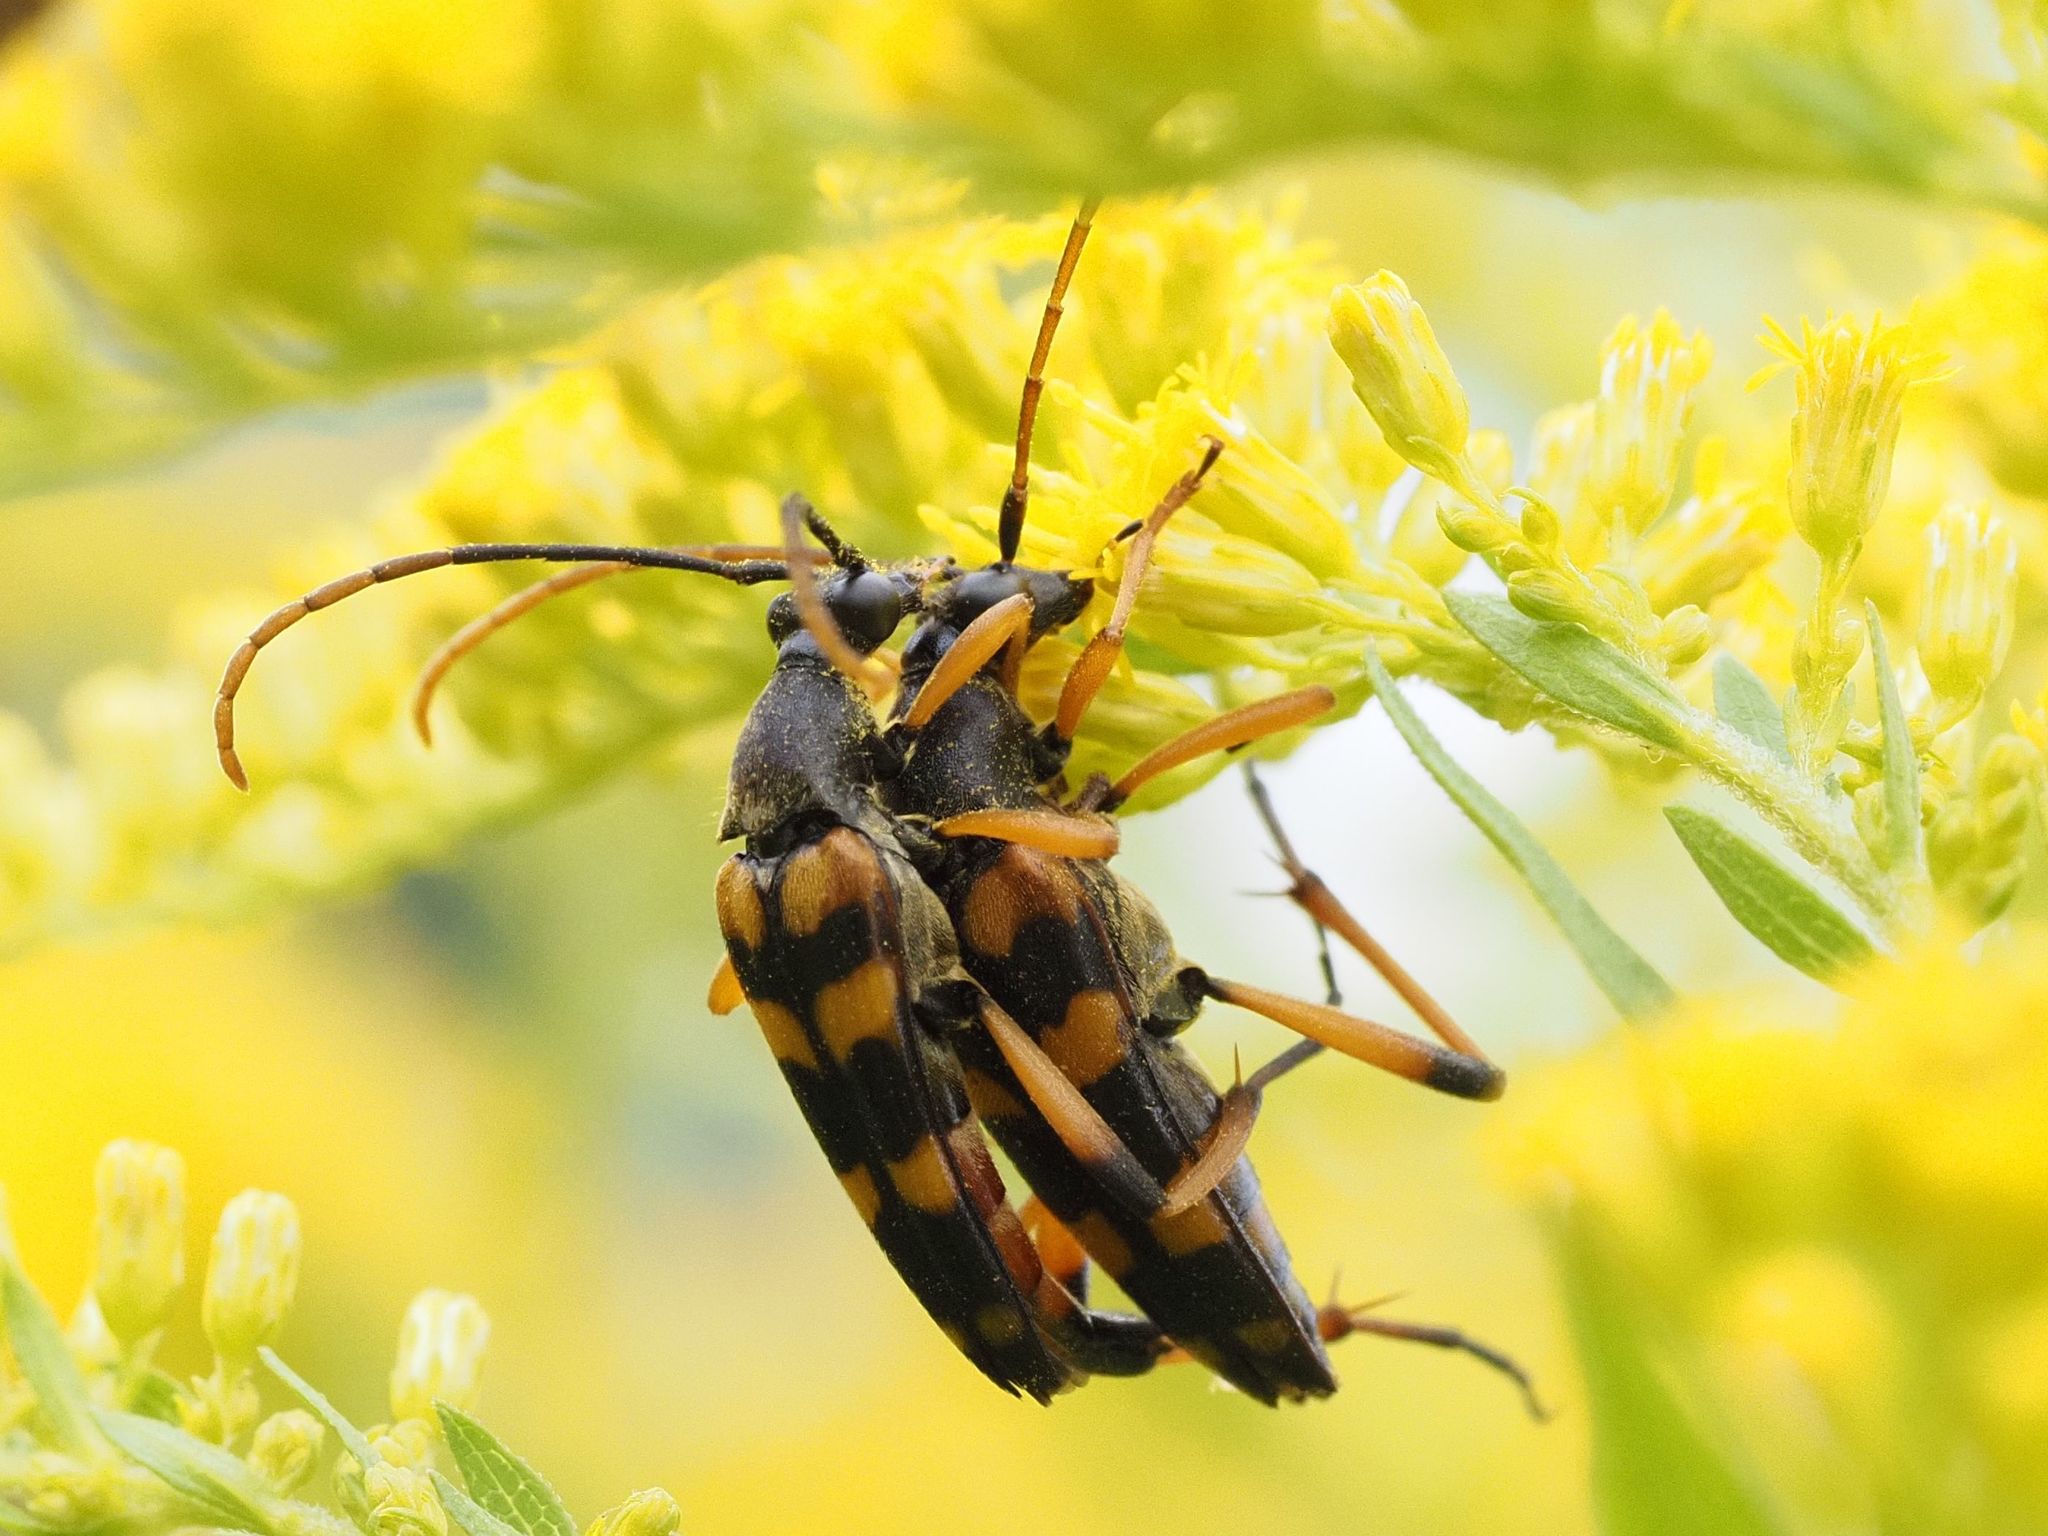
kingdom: Animalia
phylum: Arthropoda
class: Insecta
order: Coleoptera
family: Cerambycidae
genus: Strangalia
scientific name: Strangalia attenuata
